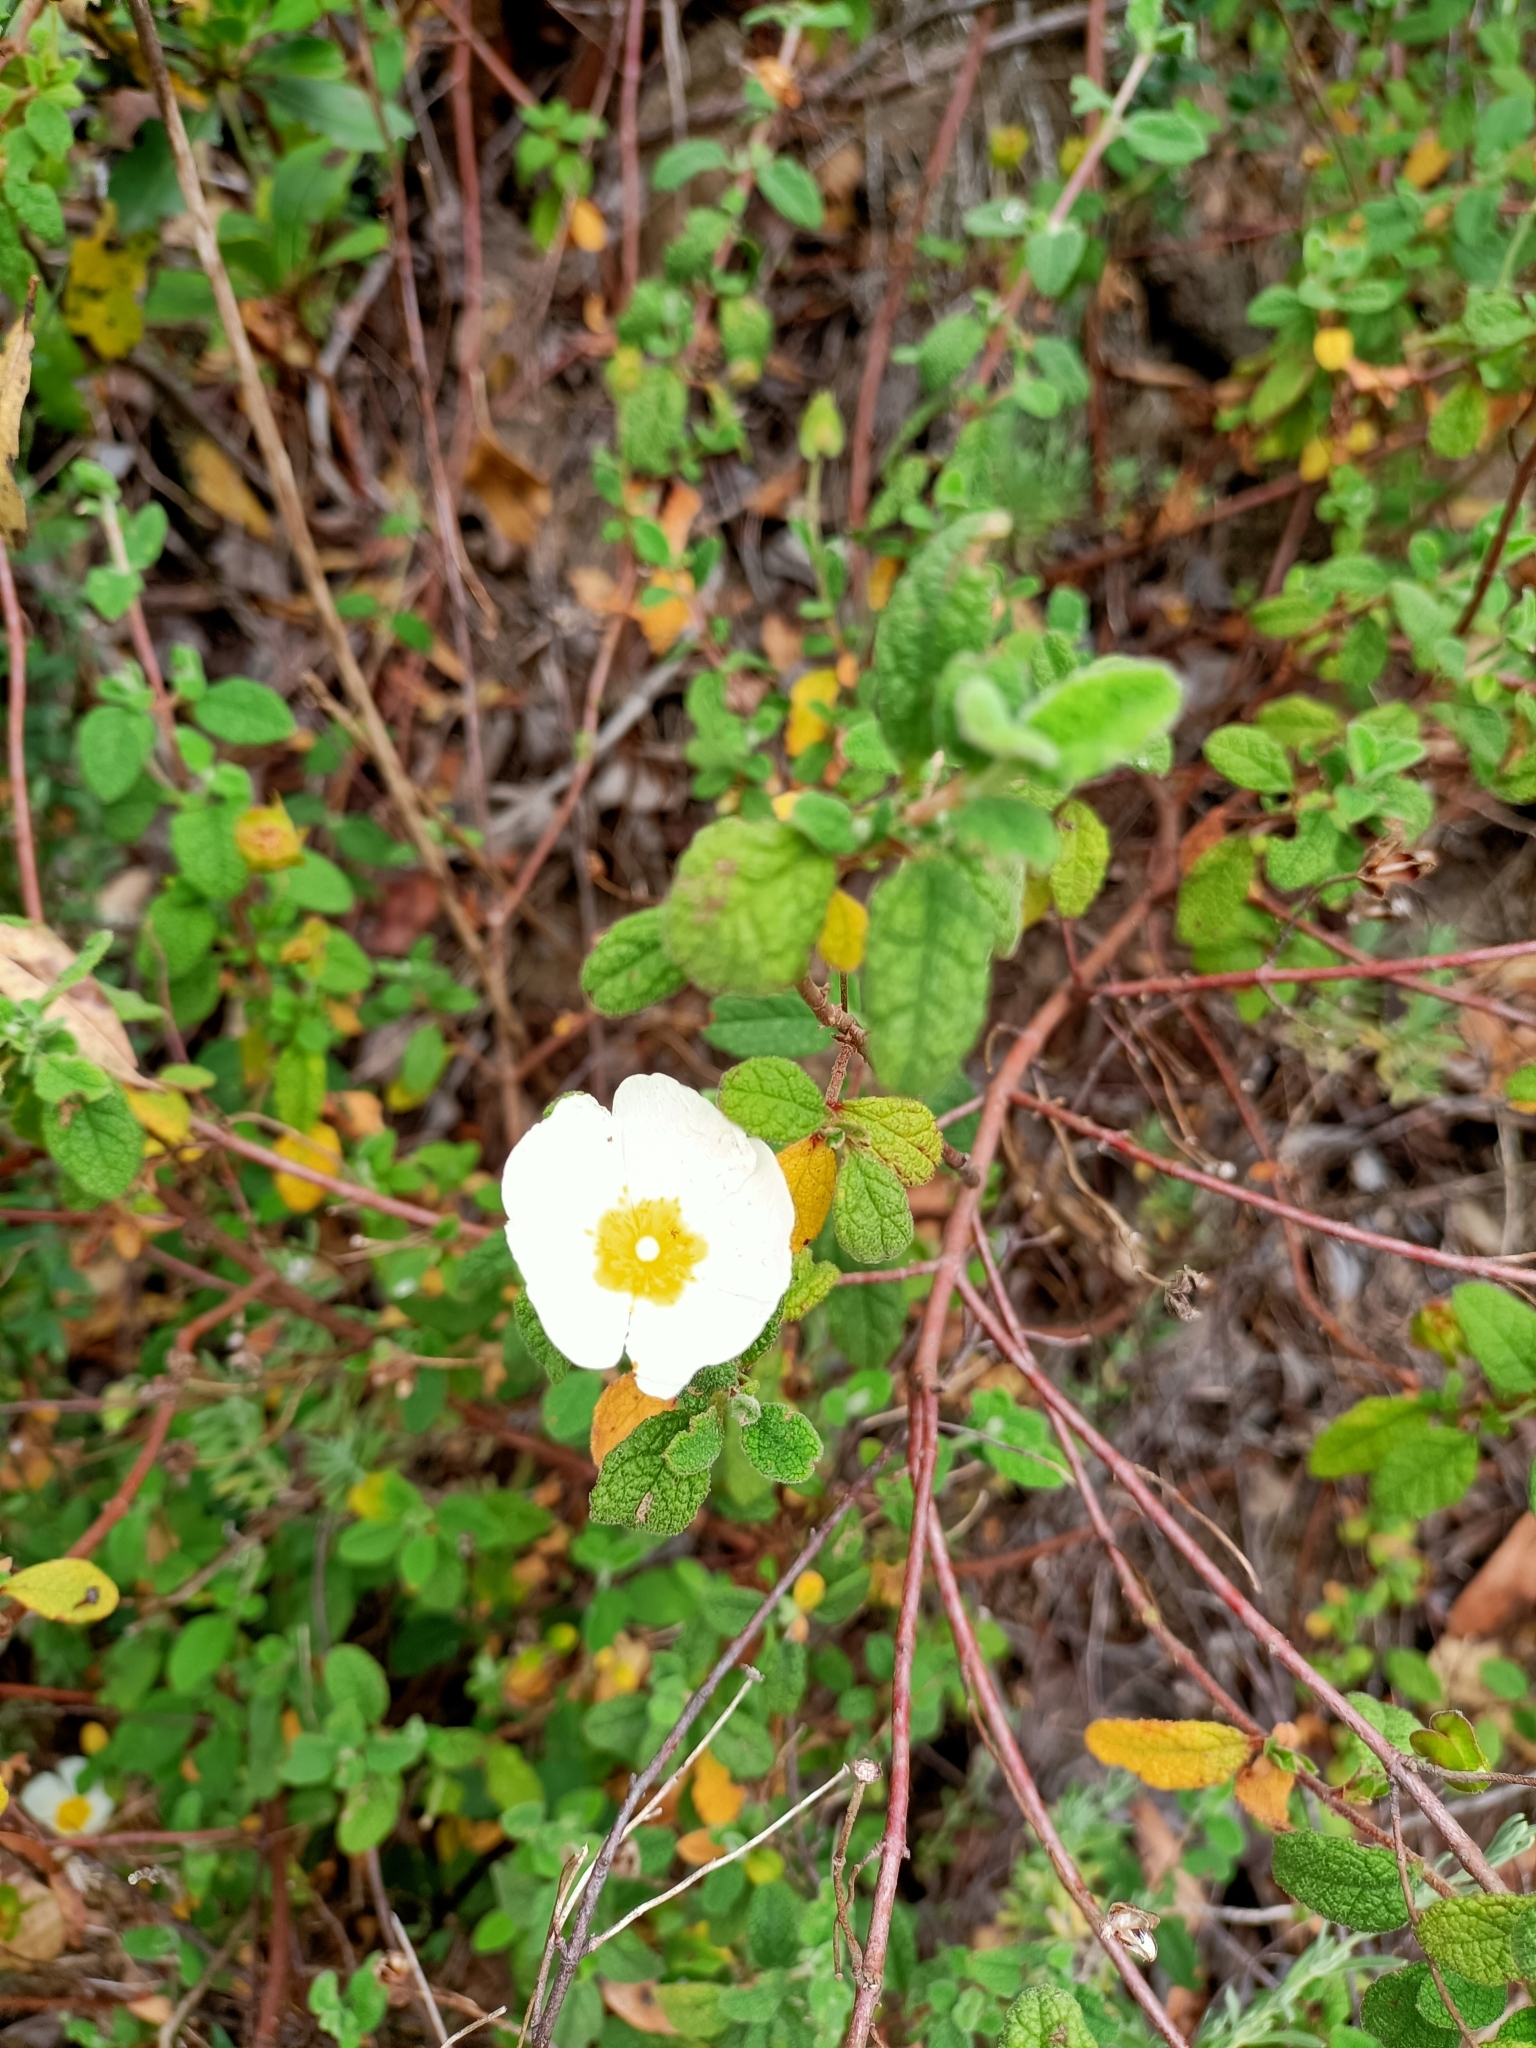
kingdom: Plantae
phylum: Tracheophyta
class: Magnoliopsida
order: Malvales
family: Cistaceae
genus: Cistus
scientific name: Cistus salviifolius
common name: Salvia cistus
